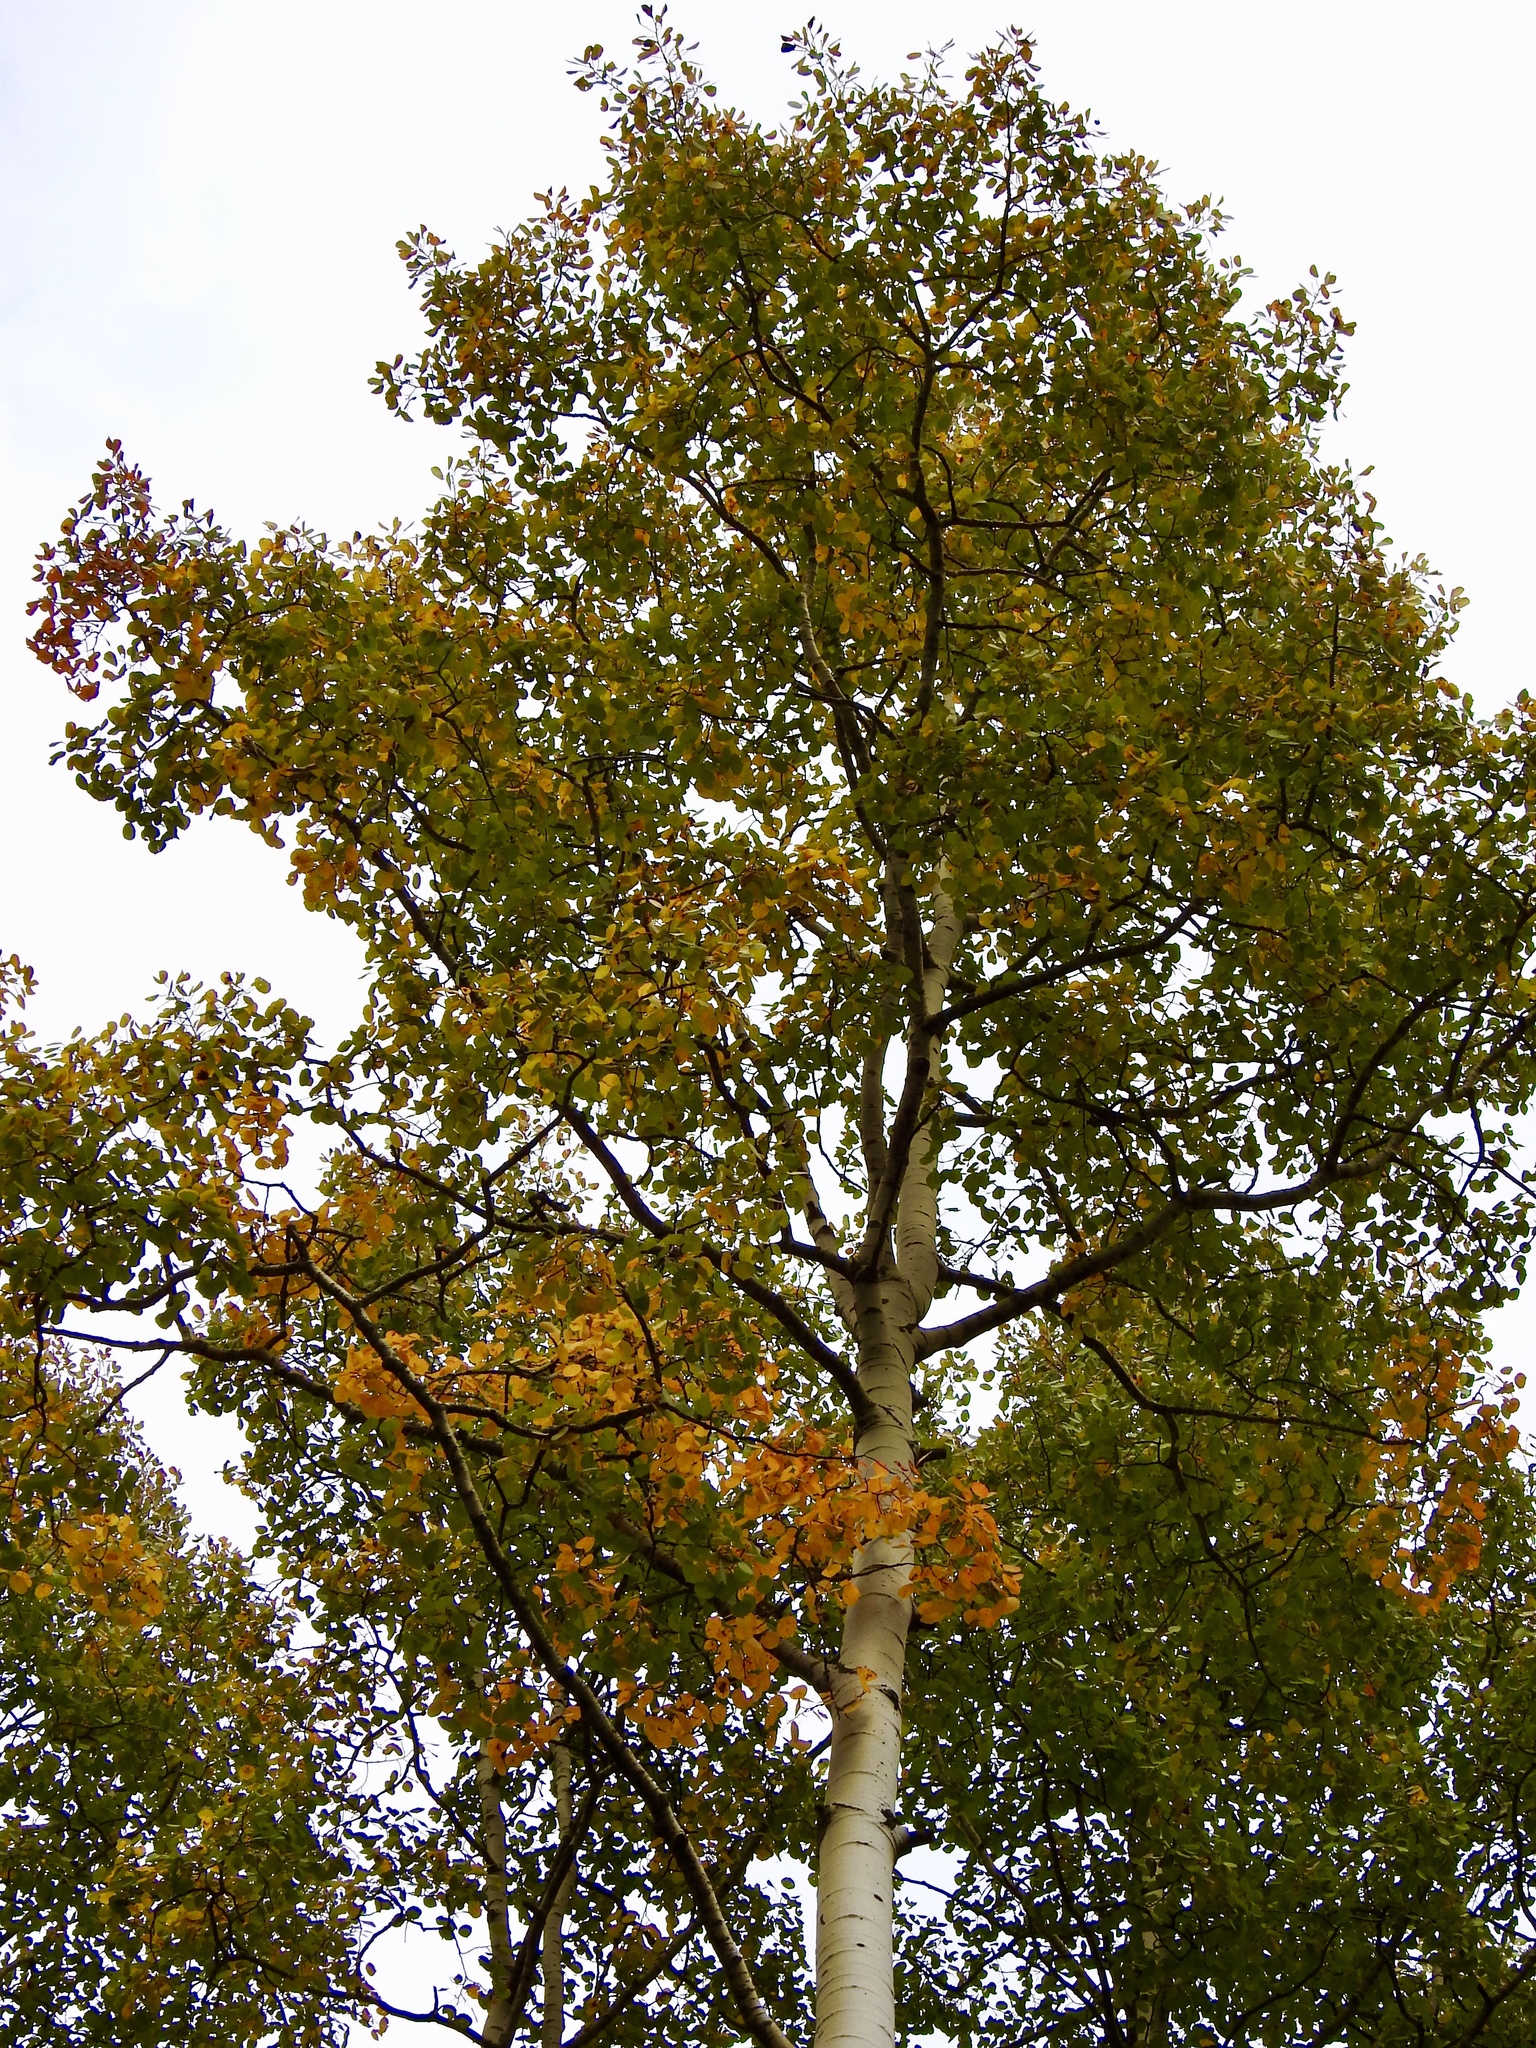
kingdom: Plantae
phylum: Tracheophyta
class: Magnoliopsida
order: Malpighiales
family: Salicaceae
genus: Populus
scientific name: Populus tremuloides
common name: Quaking aspen
